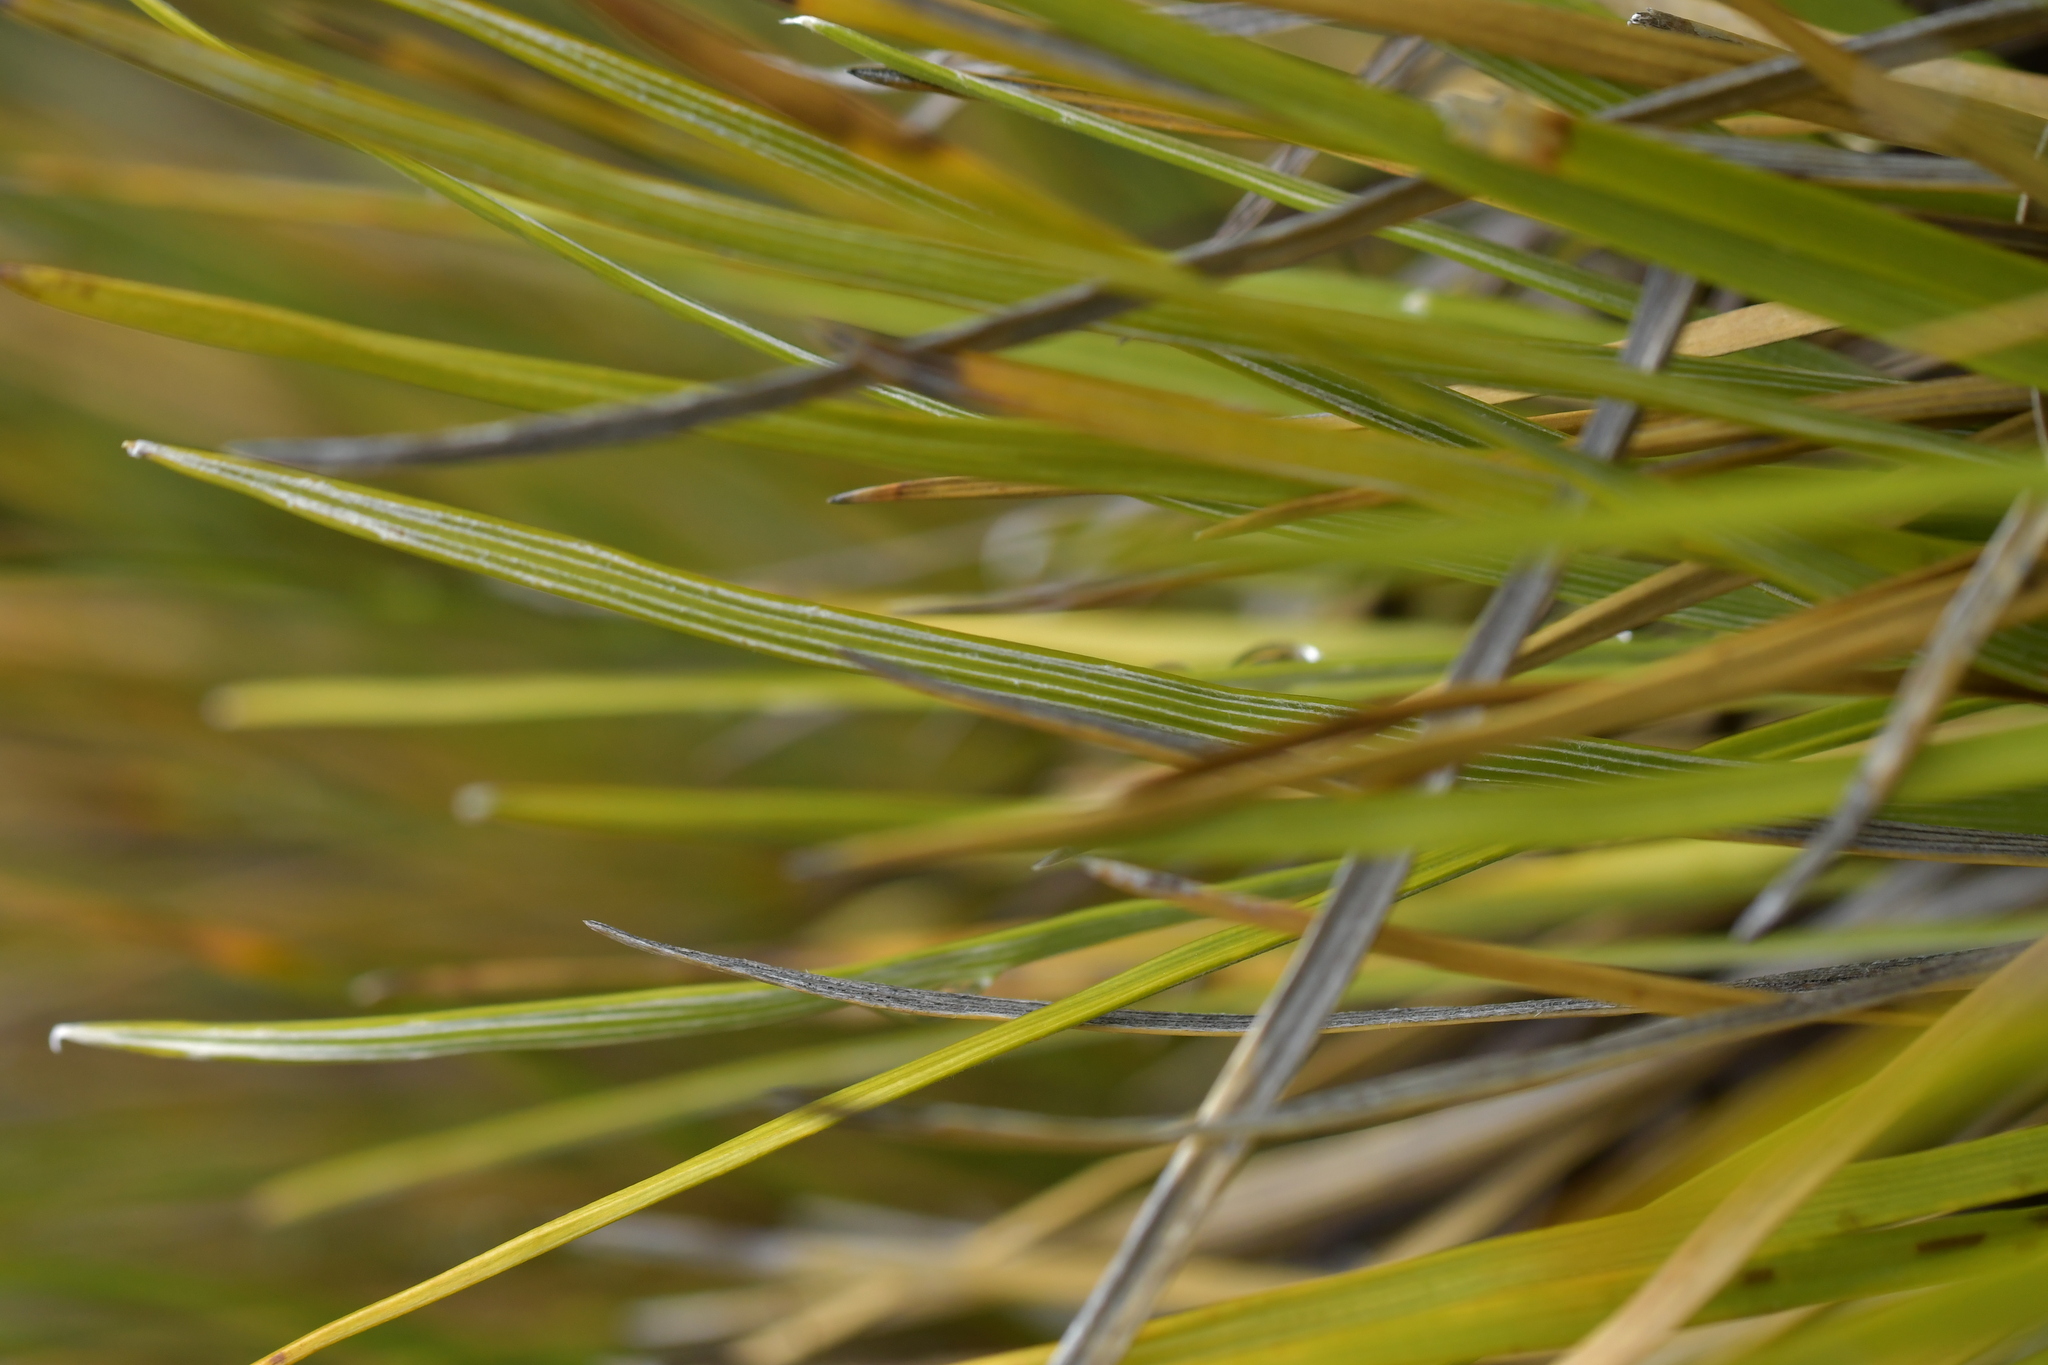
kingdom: Plantae
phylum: Tracheophyta
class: Magnoliopsida
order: Asterales
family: Asteraceae
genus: Celmisia
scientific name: Celmisia lyallii
